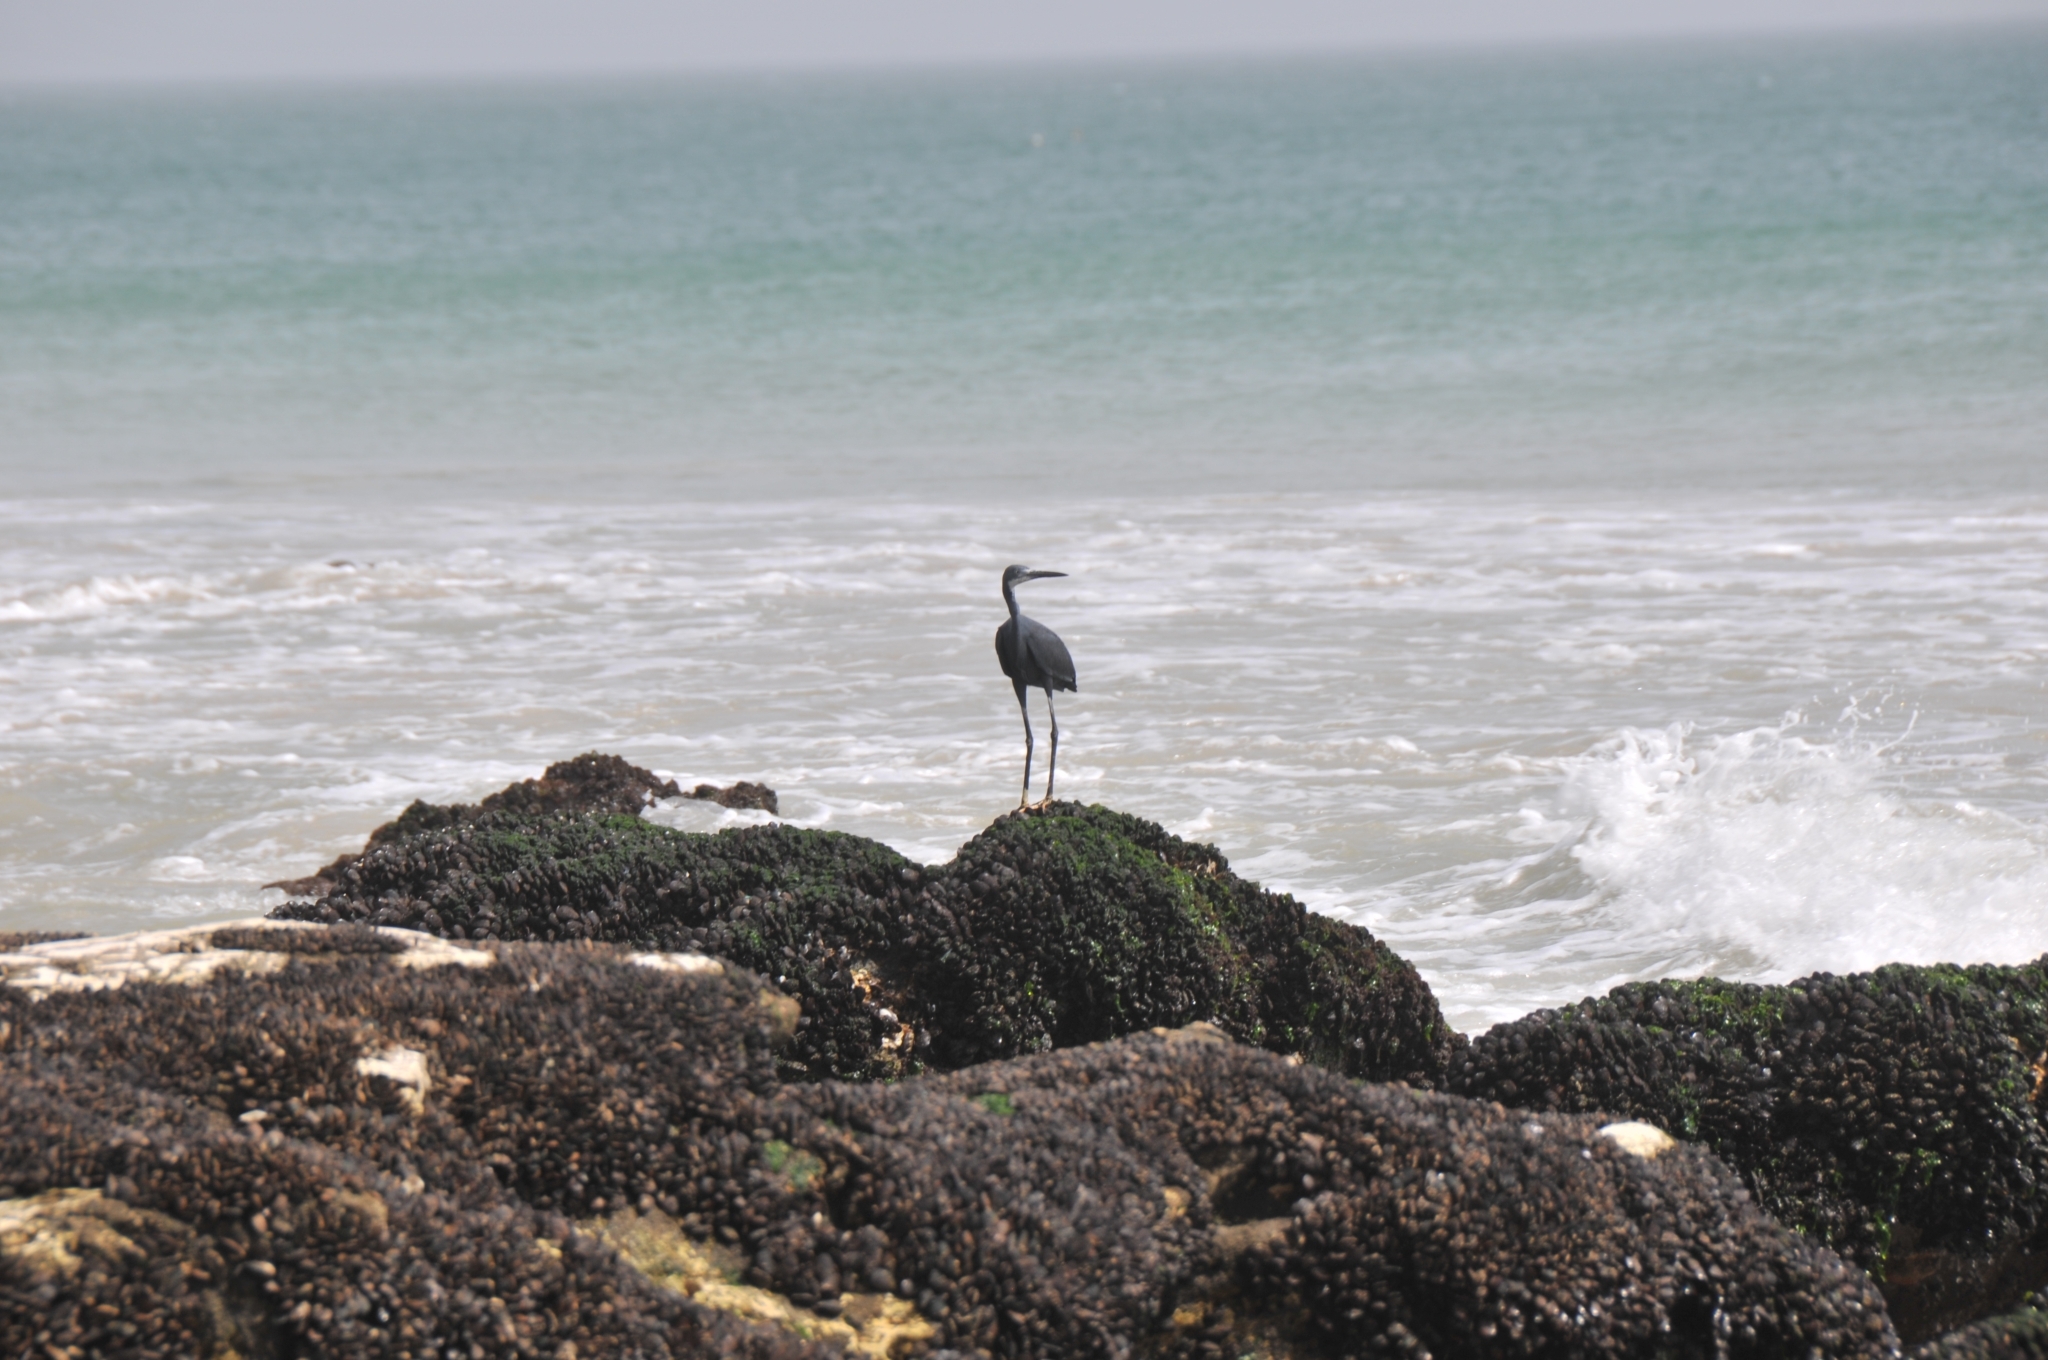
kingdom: Animalia
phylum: Chordata
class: Aves
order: Pelecaniformes
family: Ardeidae
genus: Egretta
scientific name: Egretta gularis
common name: Western reef-heron
